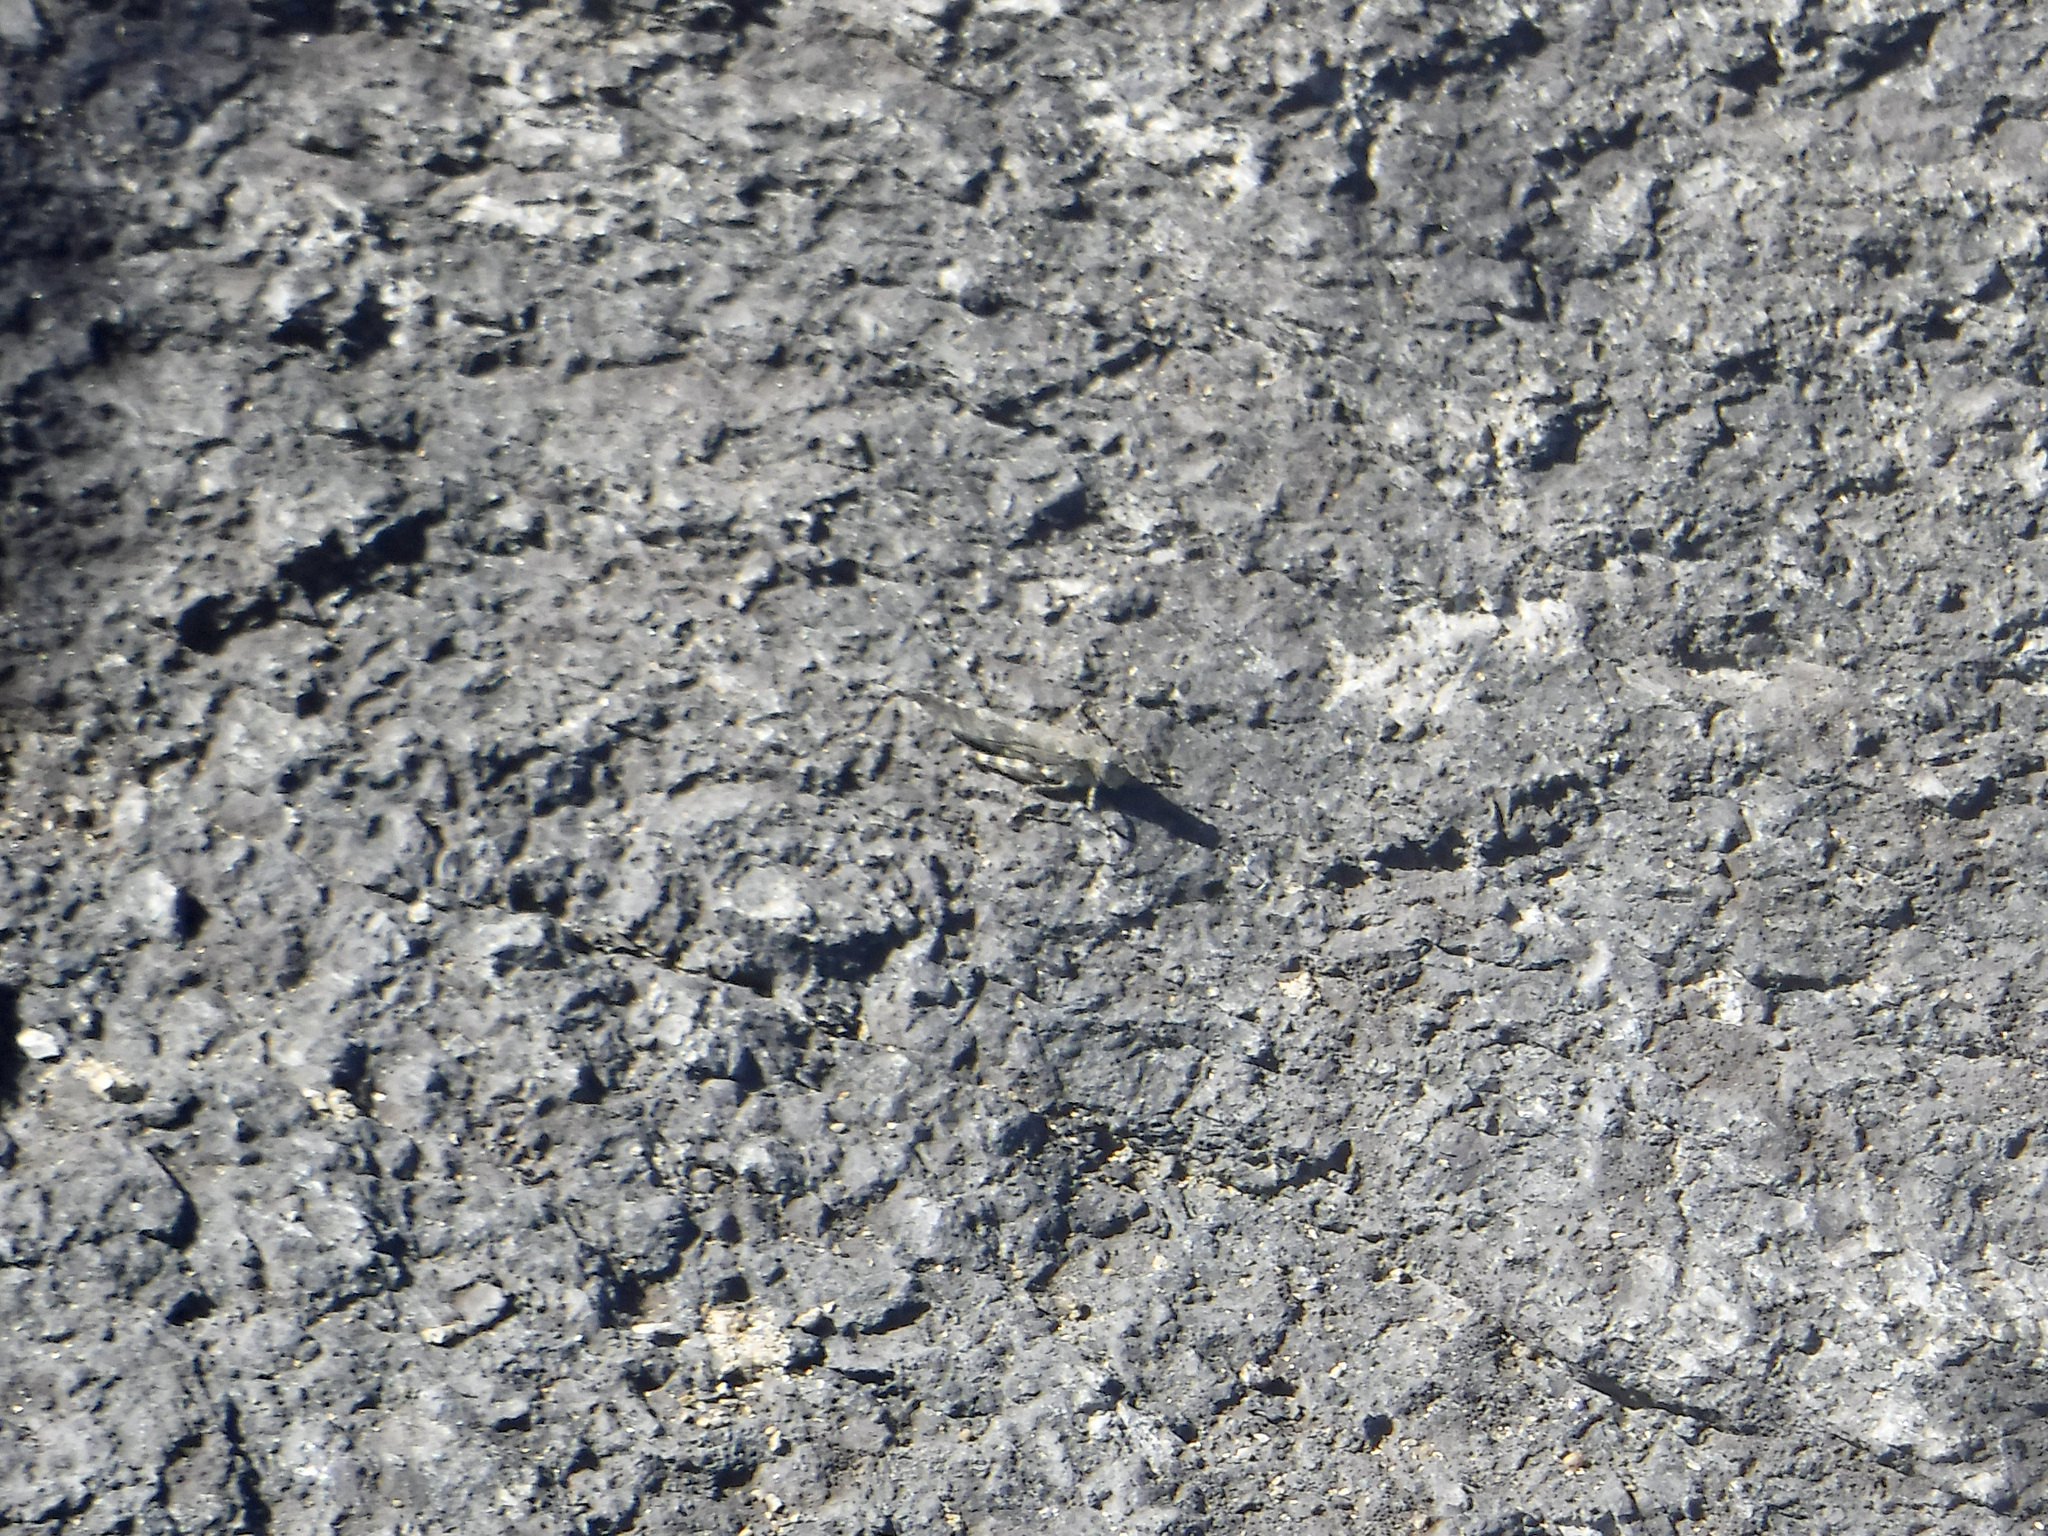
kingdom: Animalia
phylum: Arthropoda
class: Insecta
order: Orthoptera
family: Acrididae
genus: Trimerotropis
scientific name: Trimerotropis verruculata
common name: Crackling forest grasshopper
